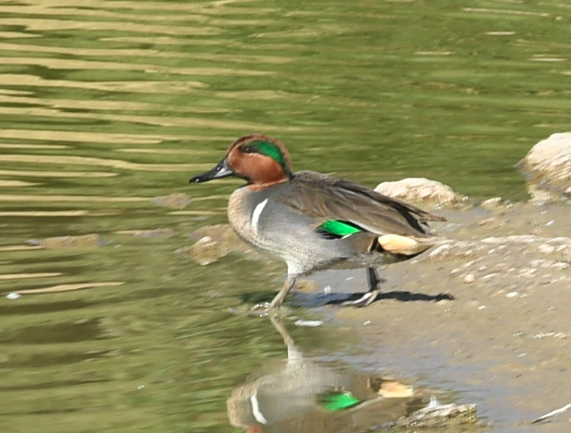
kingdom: Animalia
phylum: Chordata
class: Aves
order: Anseriformes
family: Anatidae
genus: Anas
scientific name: Anas crecca
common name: Eurasian teal
